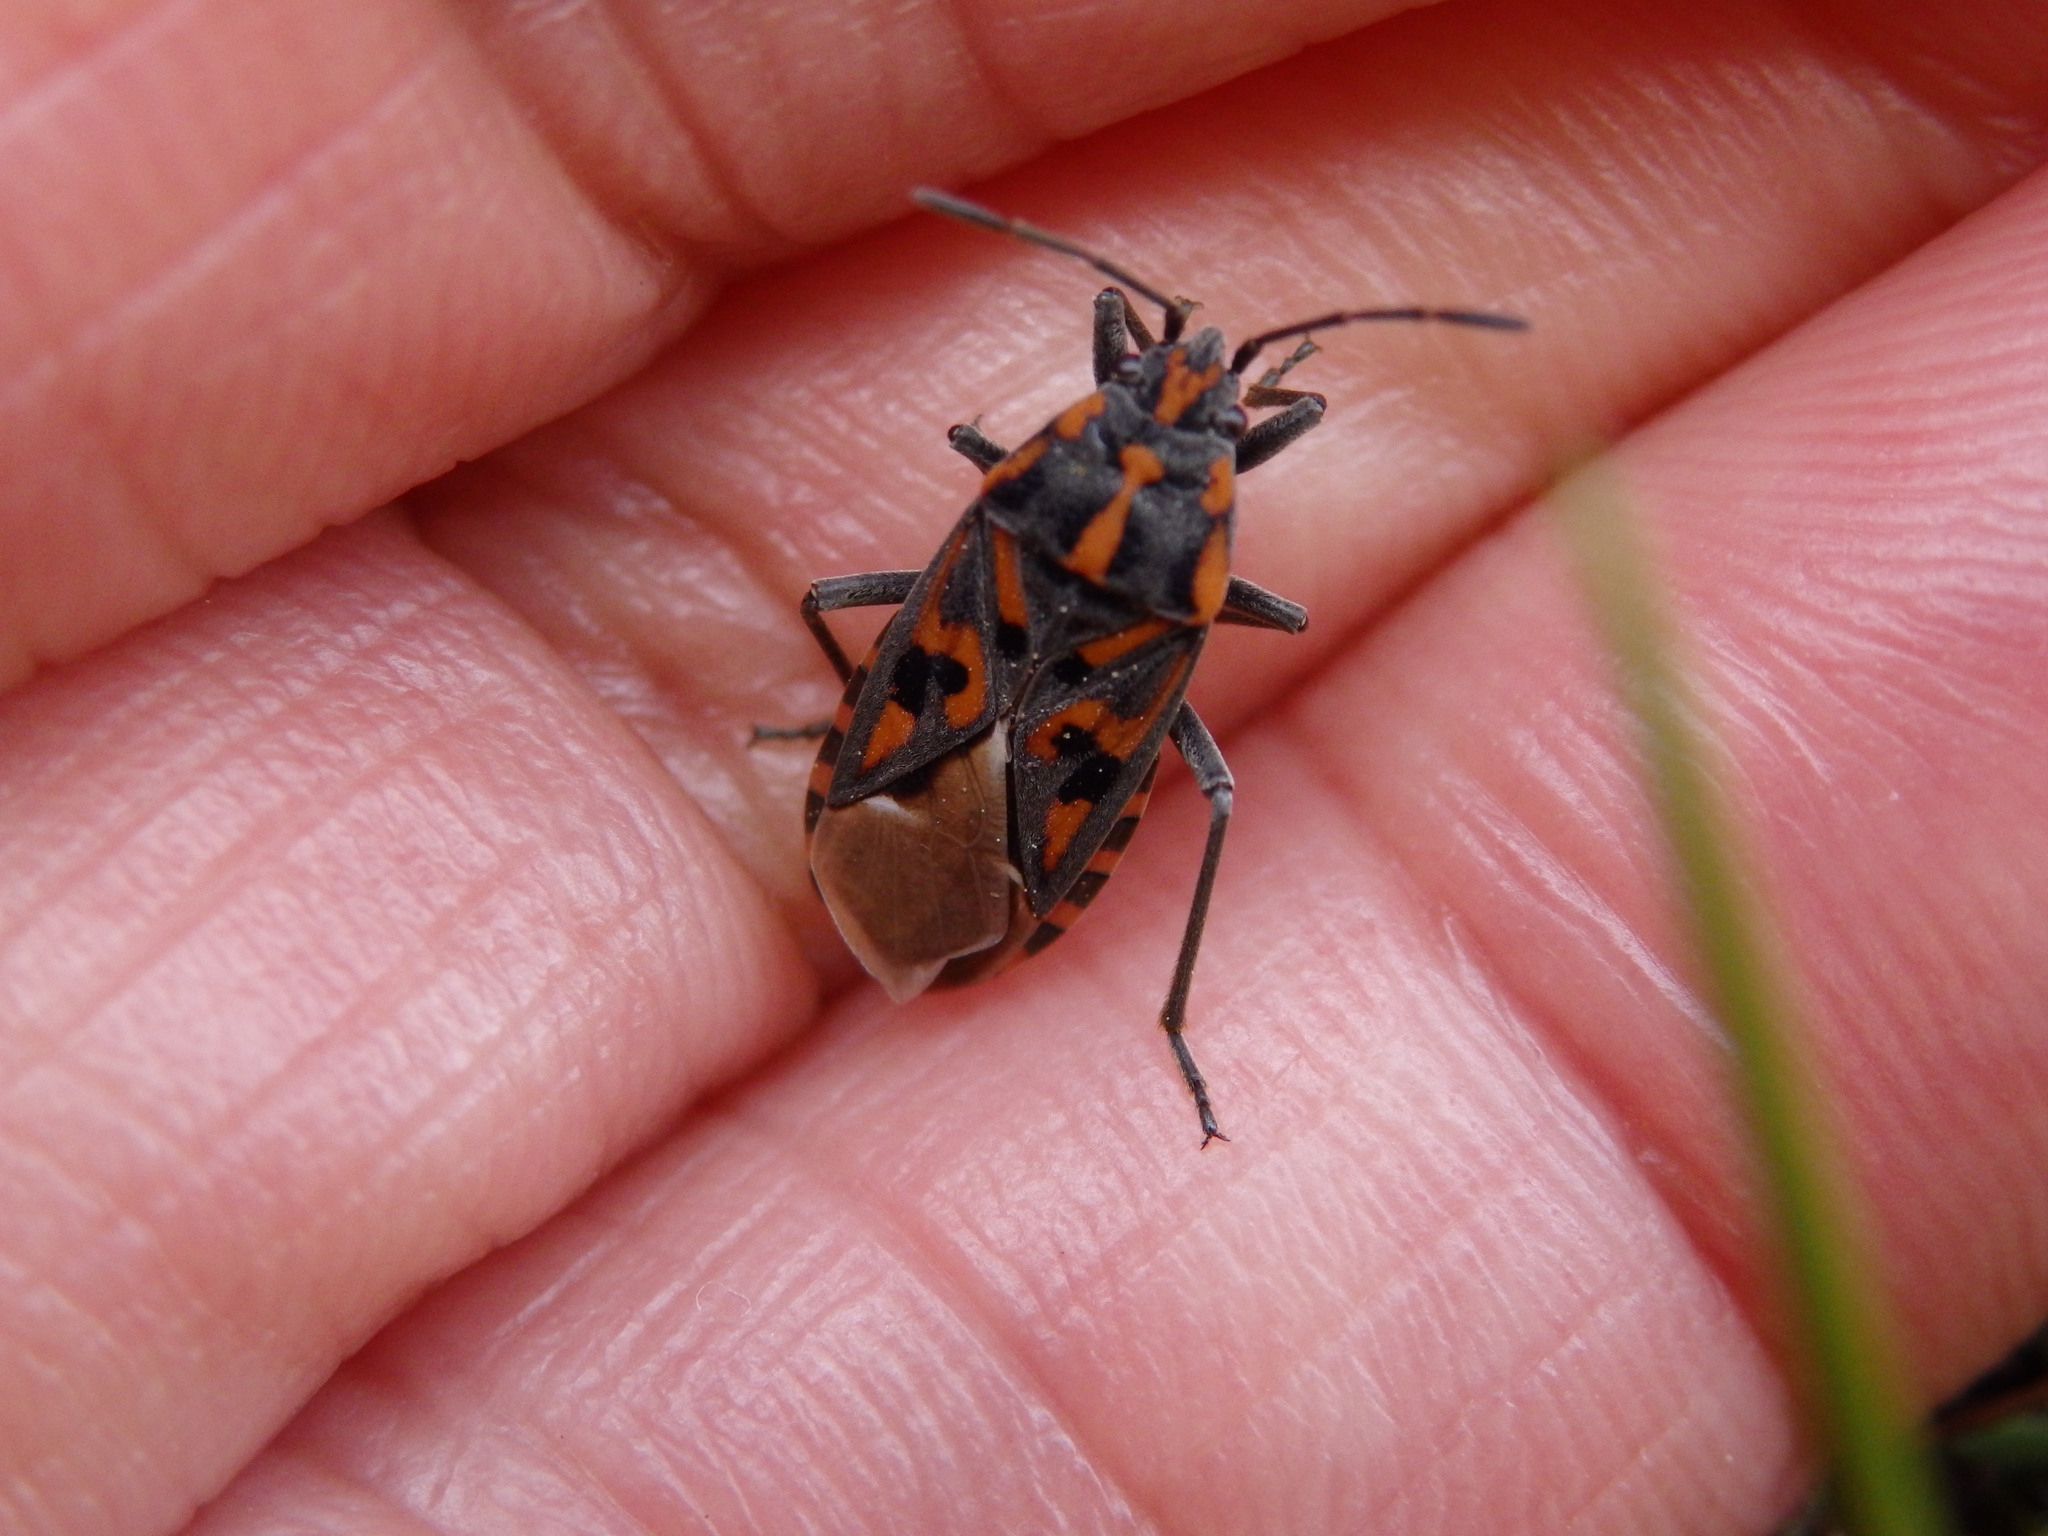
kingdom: Animalia
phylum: Arthropoda
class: Insecta
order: Hemiptera
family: Lygaeidae
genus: Spilostethus
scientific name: Spilostethus saxatilis
